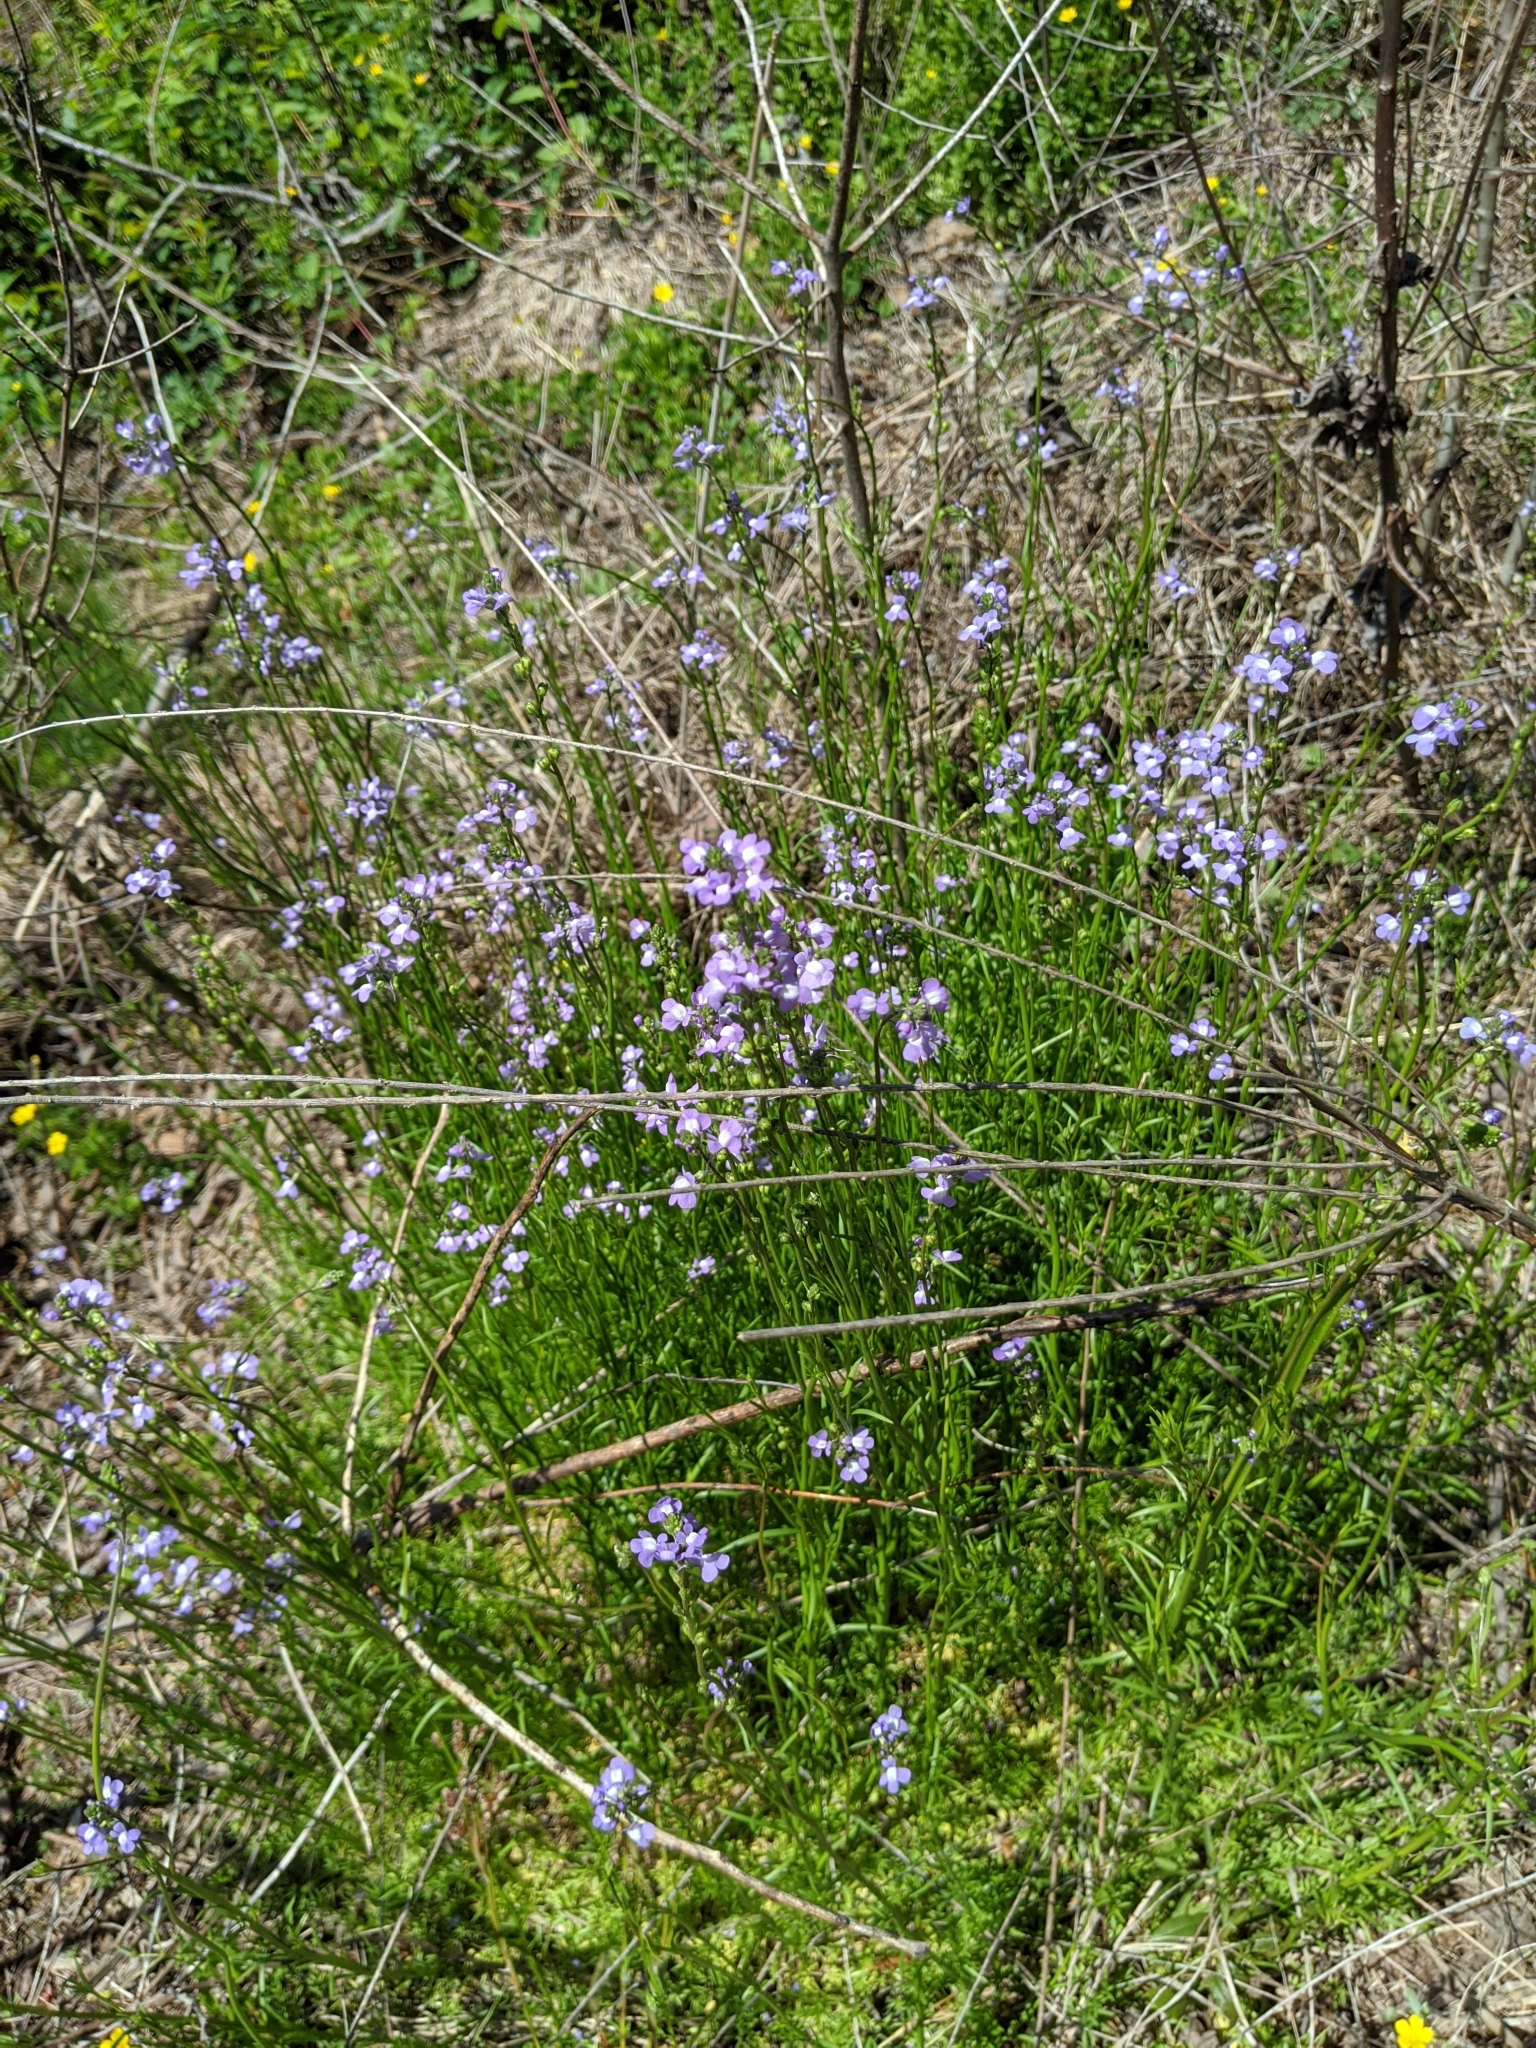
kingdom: Plantae
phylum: Tracheophyta
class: Magnoliopsida
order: Lamiales
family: Plantaginaceae
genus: Nuttallanthus
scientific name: Nuttallanthus canadensis
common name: Blue toadflax
